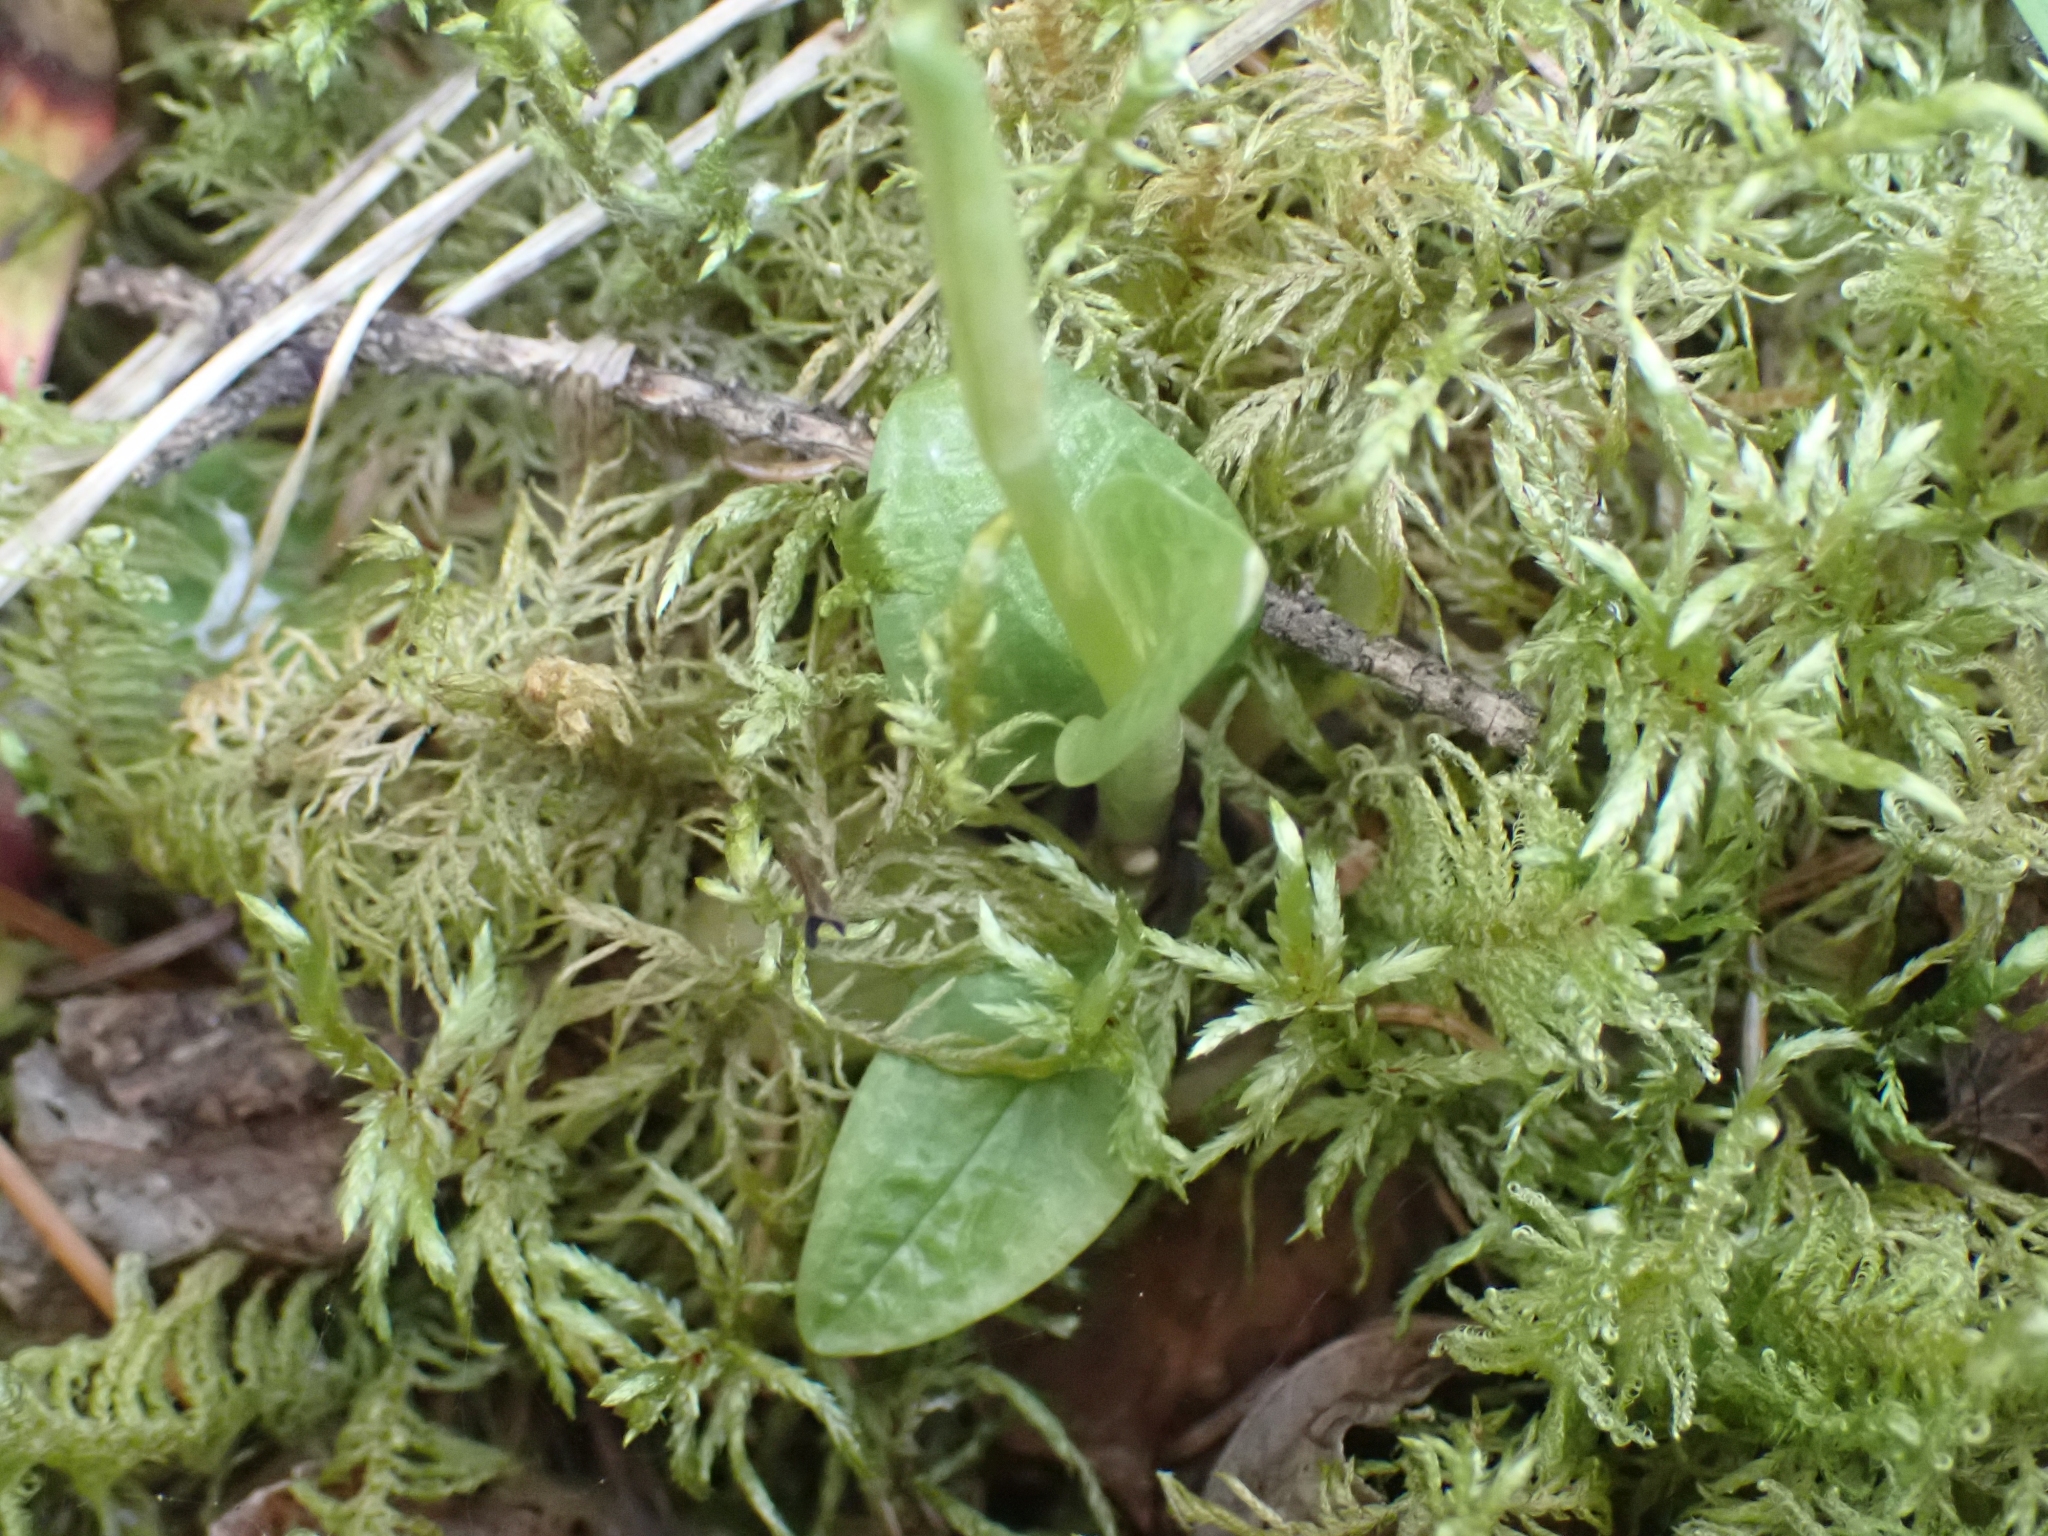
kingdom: Plantae
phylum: Tracheophyta
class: Liliopsida
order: Asparagales
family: Orchidaceae
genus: Goodyera
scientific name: Goodyera repens
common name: Creeping lady's-tresses
